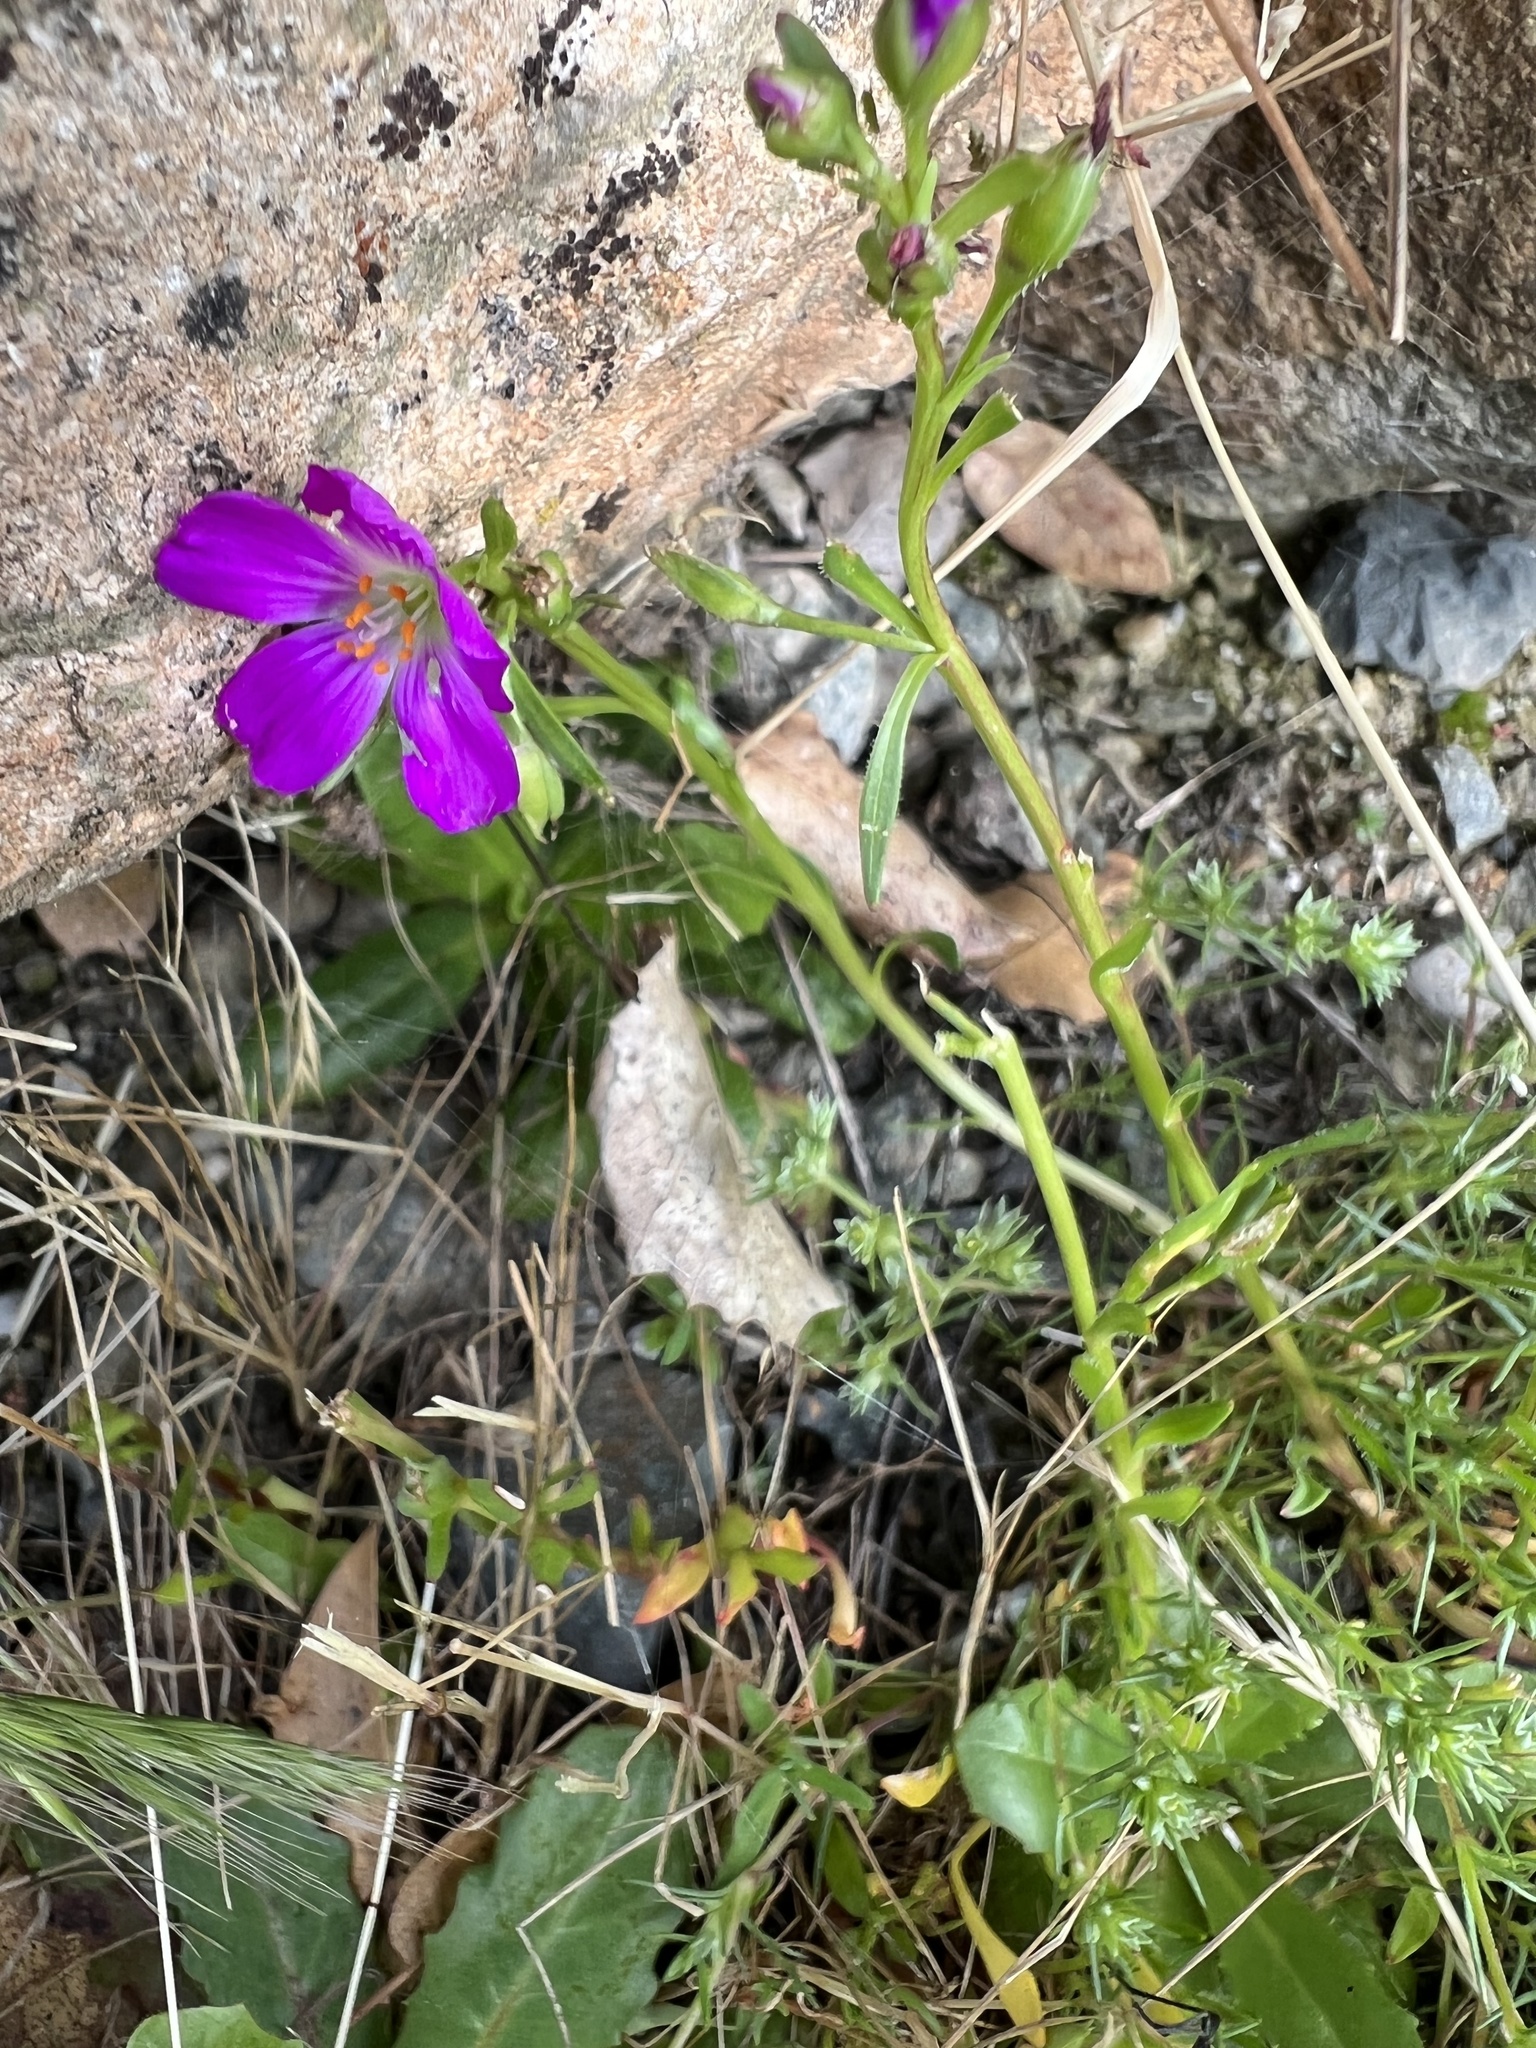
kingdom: Plantae
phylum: Tracheophyta
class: Magnoliopsida
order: Caryophyllales
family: Montiaceae
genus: Calandrinia
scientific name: Calandrinia menziesii
